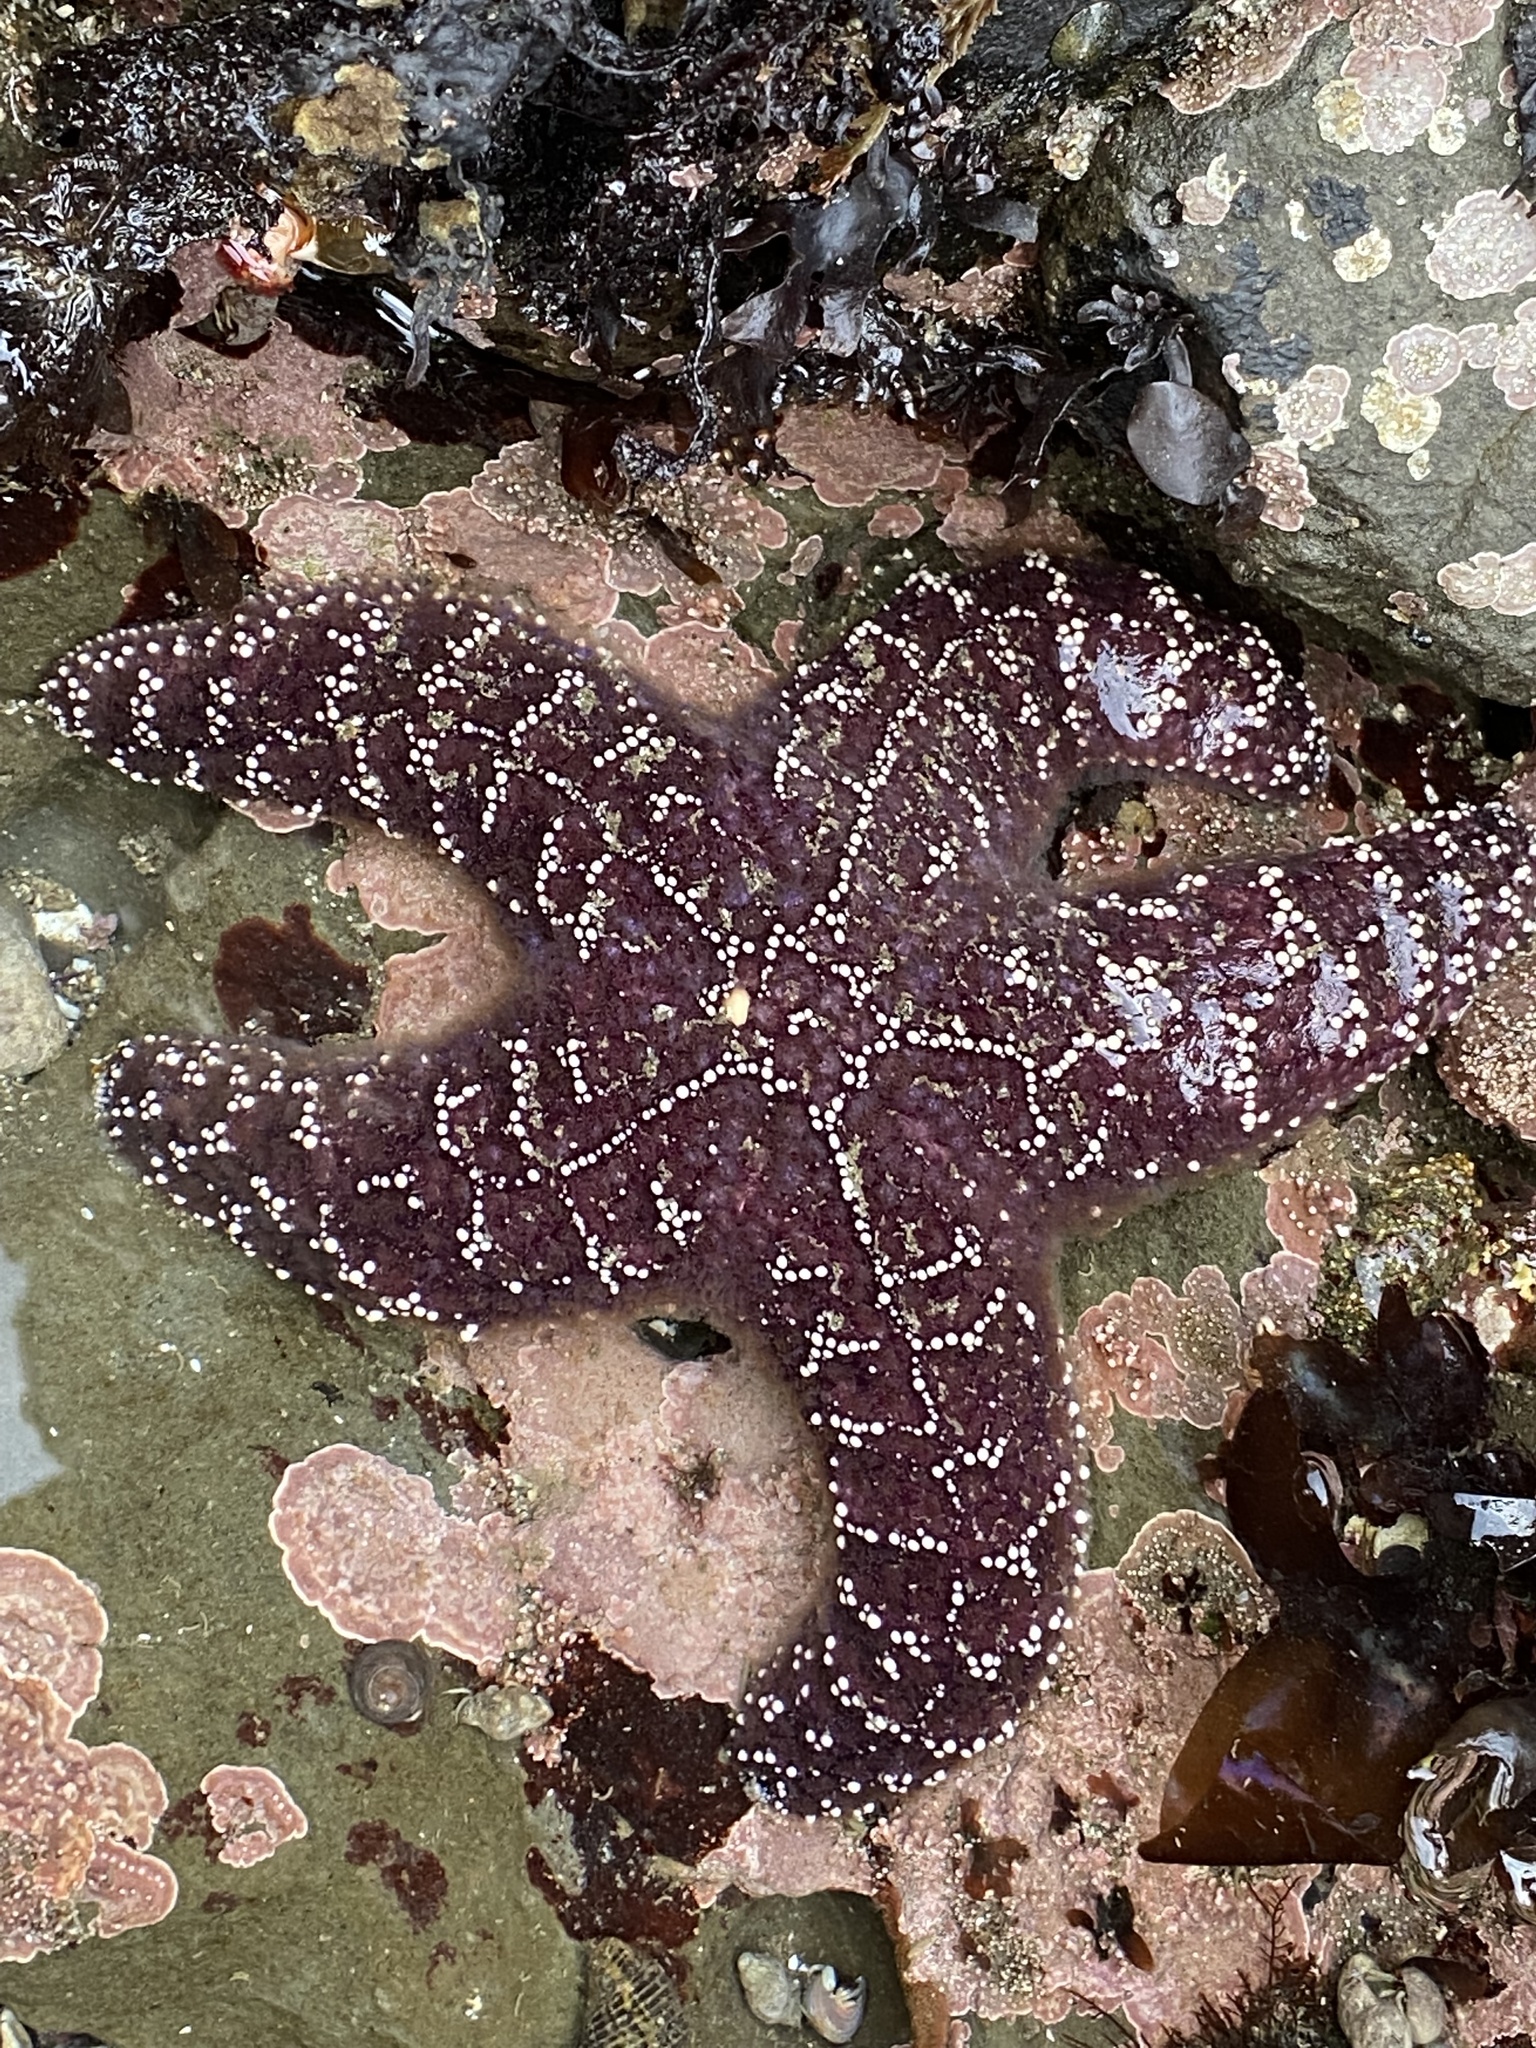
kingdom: Animalia
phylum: Echinodermata
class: Asteroidea
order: Forcipulatida
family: Asteriidae
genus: Pisaster
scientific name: Pisaster ochraceus
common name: Ochre stars
